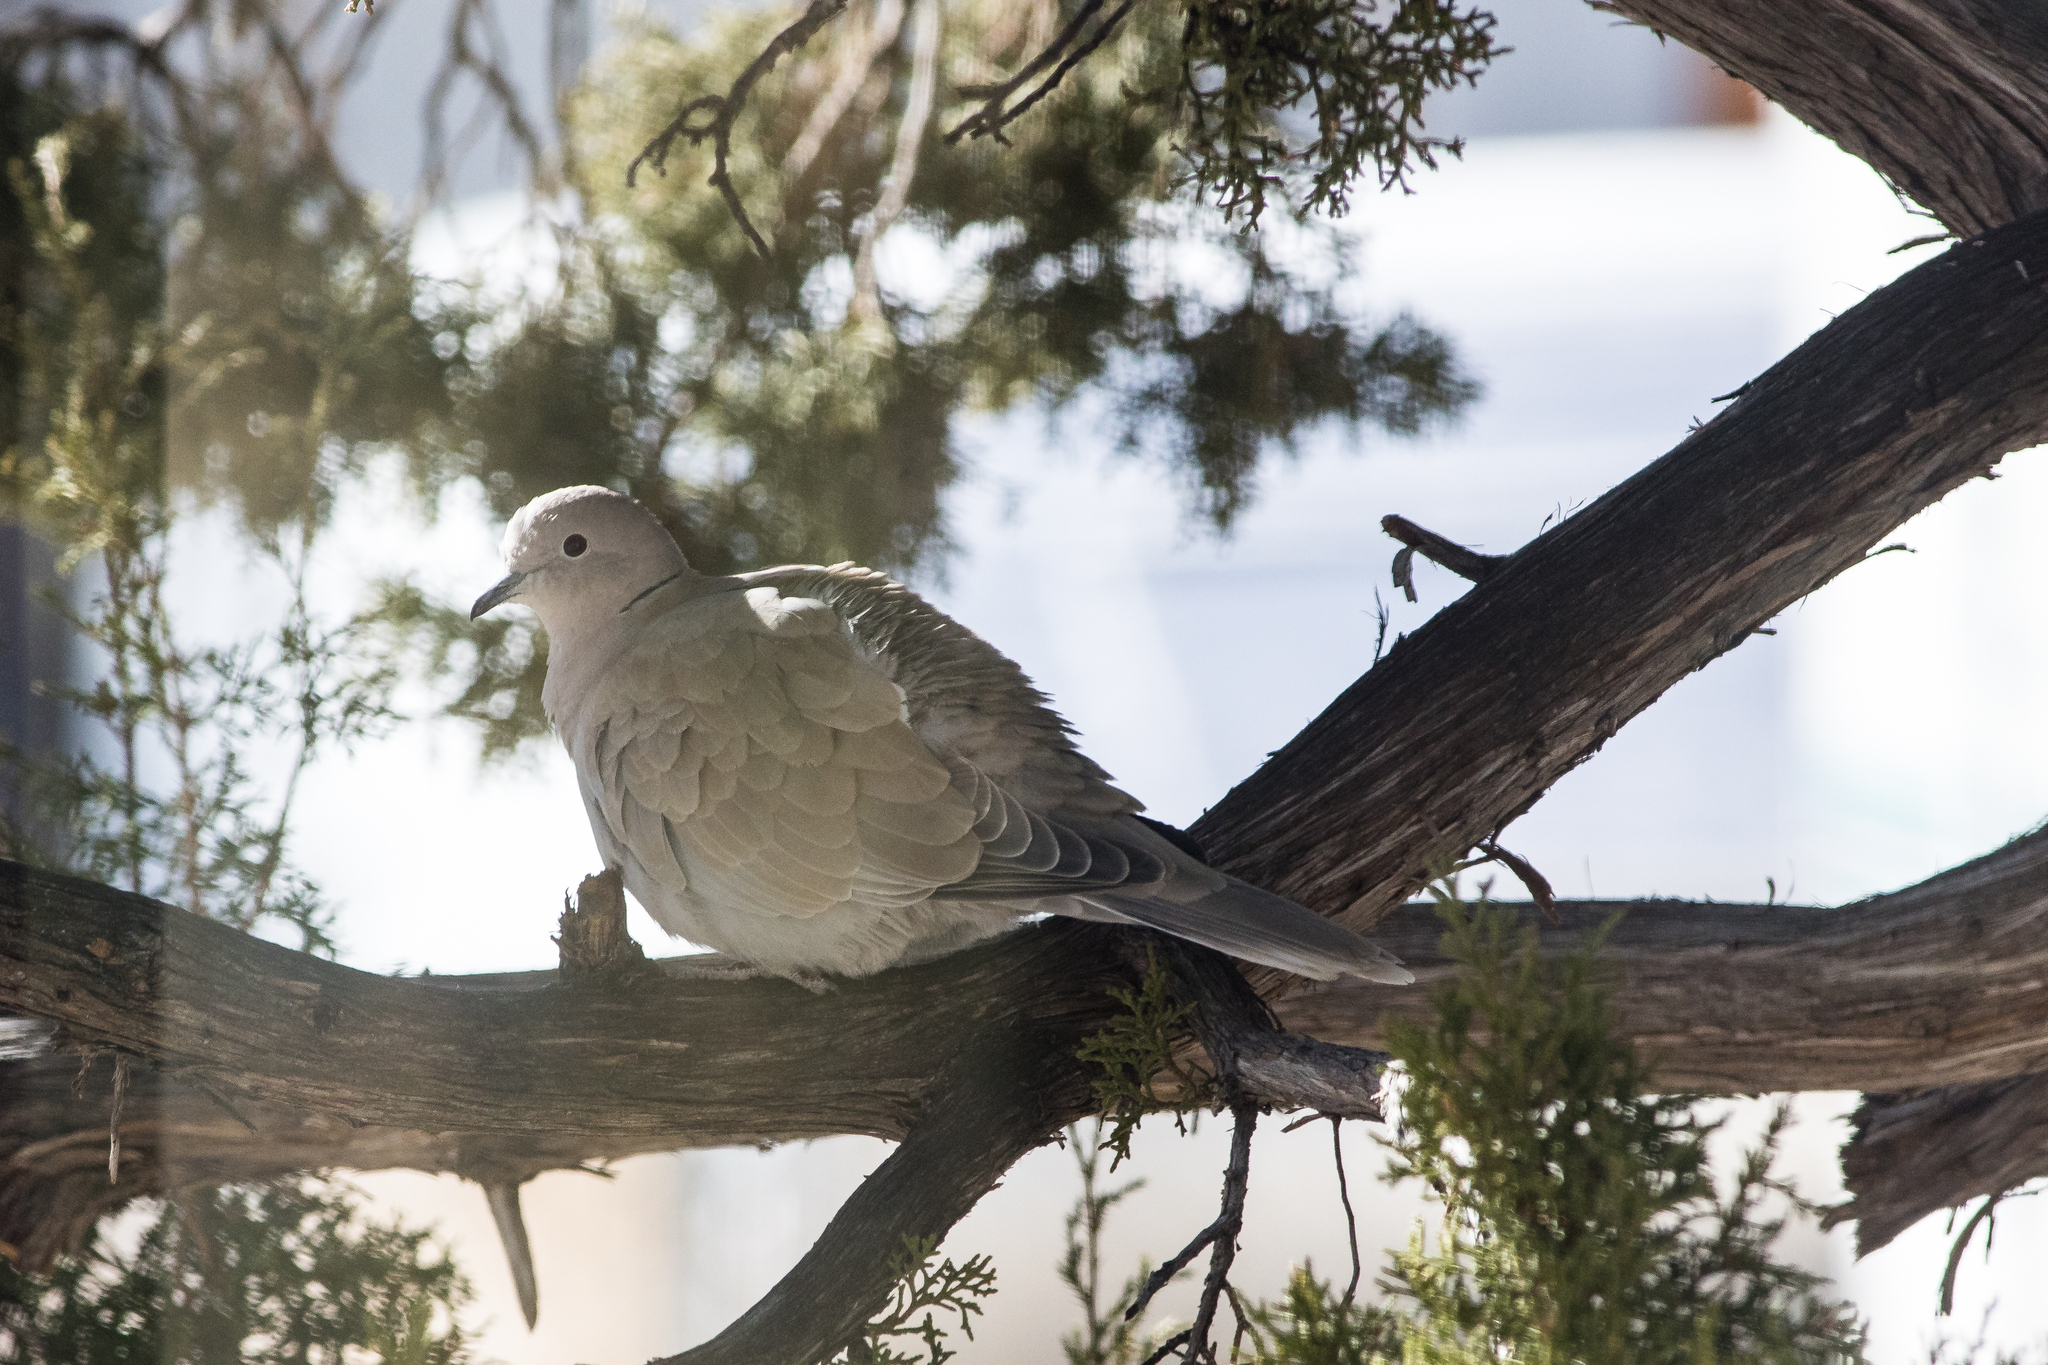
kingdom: Animalia
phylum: Chordata
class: Aves
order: Columbiformes
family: Columbidae
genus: Streptopelia
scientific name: Streptopelia decaocto
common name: Eurasian collared dove
